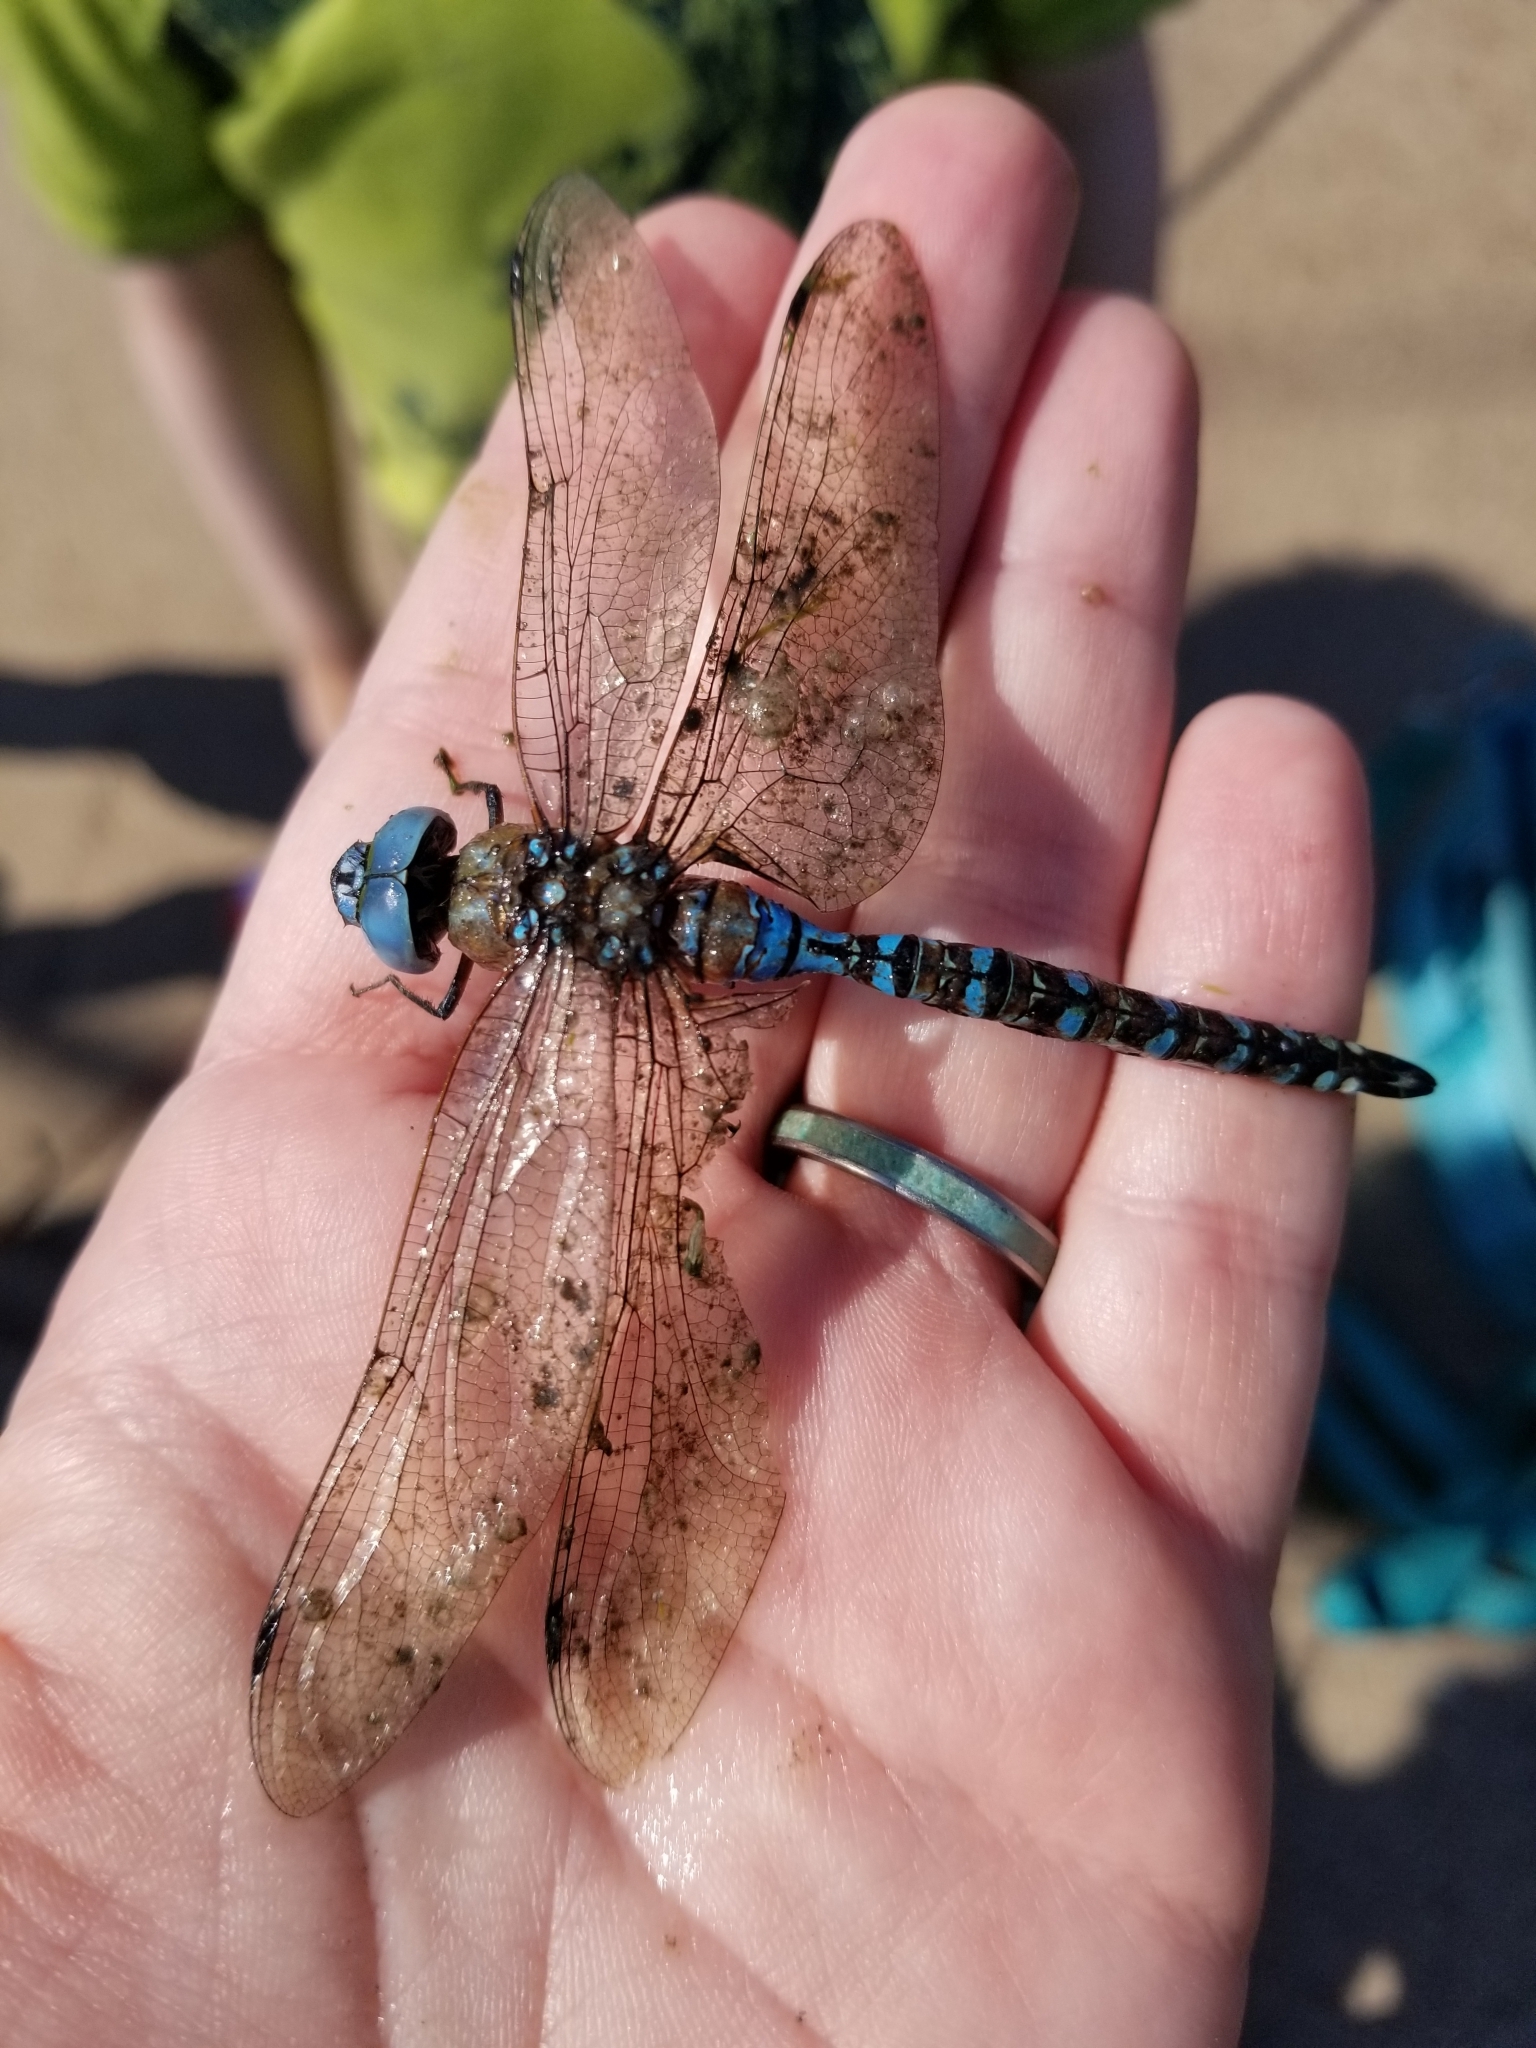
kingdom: Animalia
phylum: Arthropoda
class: Insecta
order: Odonata
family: Aeshnidae
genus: Rhionaeschna
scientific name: Rhionaeschna multicolor
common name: Blue-eyed darner
